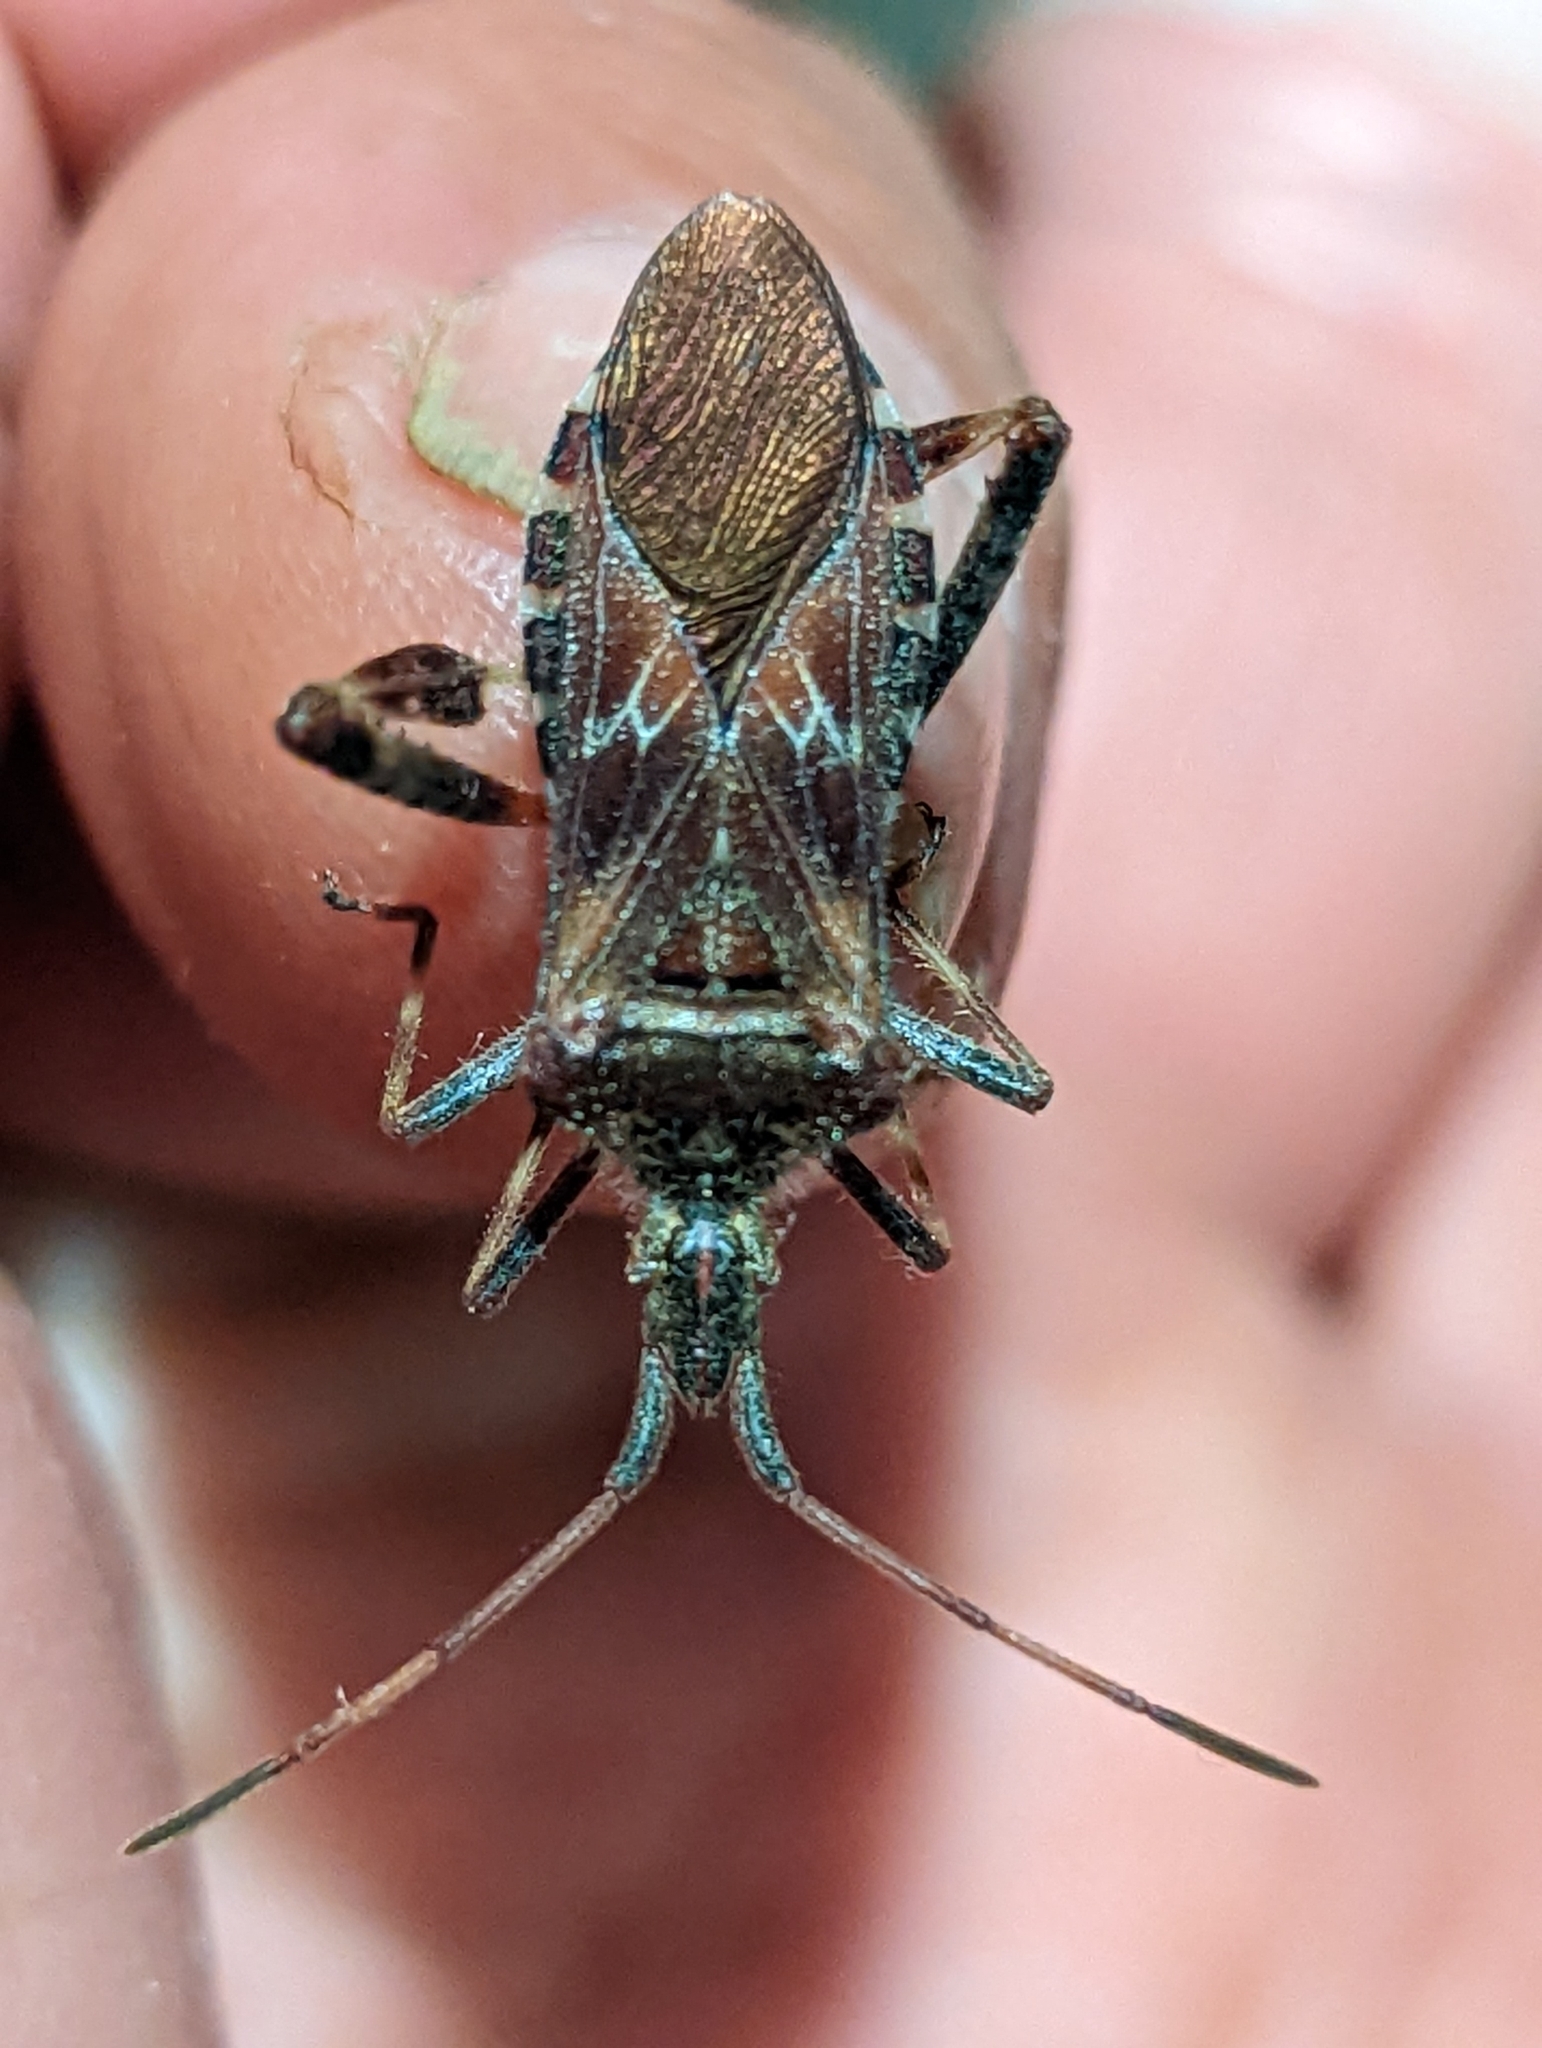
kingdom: Animalia
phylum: Arthropoda
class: Insecta
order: Hemiptera
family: Coreidae
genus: Leptoglossus
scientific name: Leptoglossus occidentalis
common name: Western conifer-seed bug
